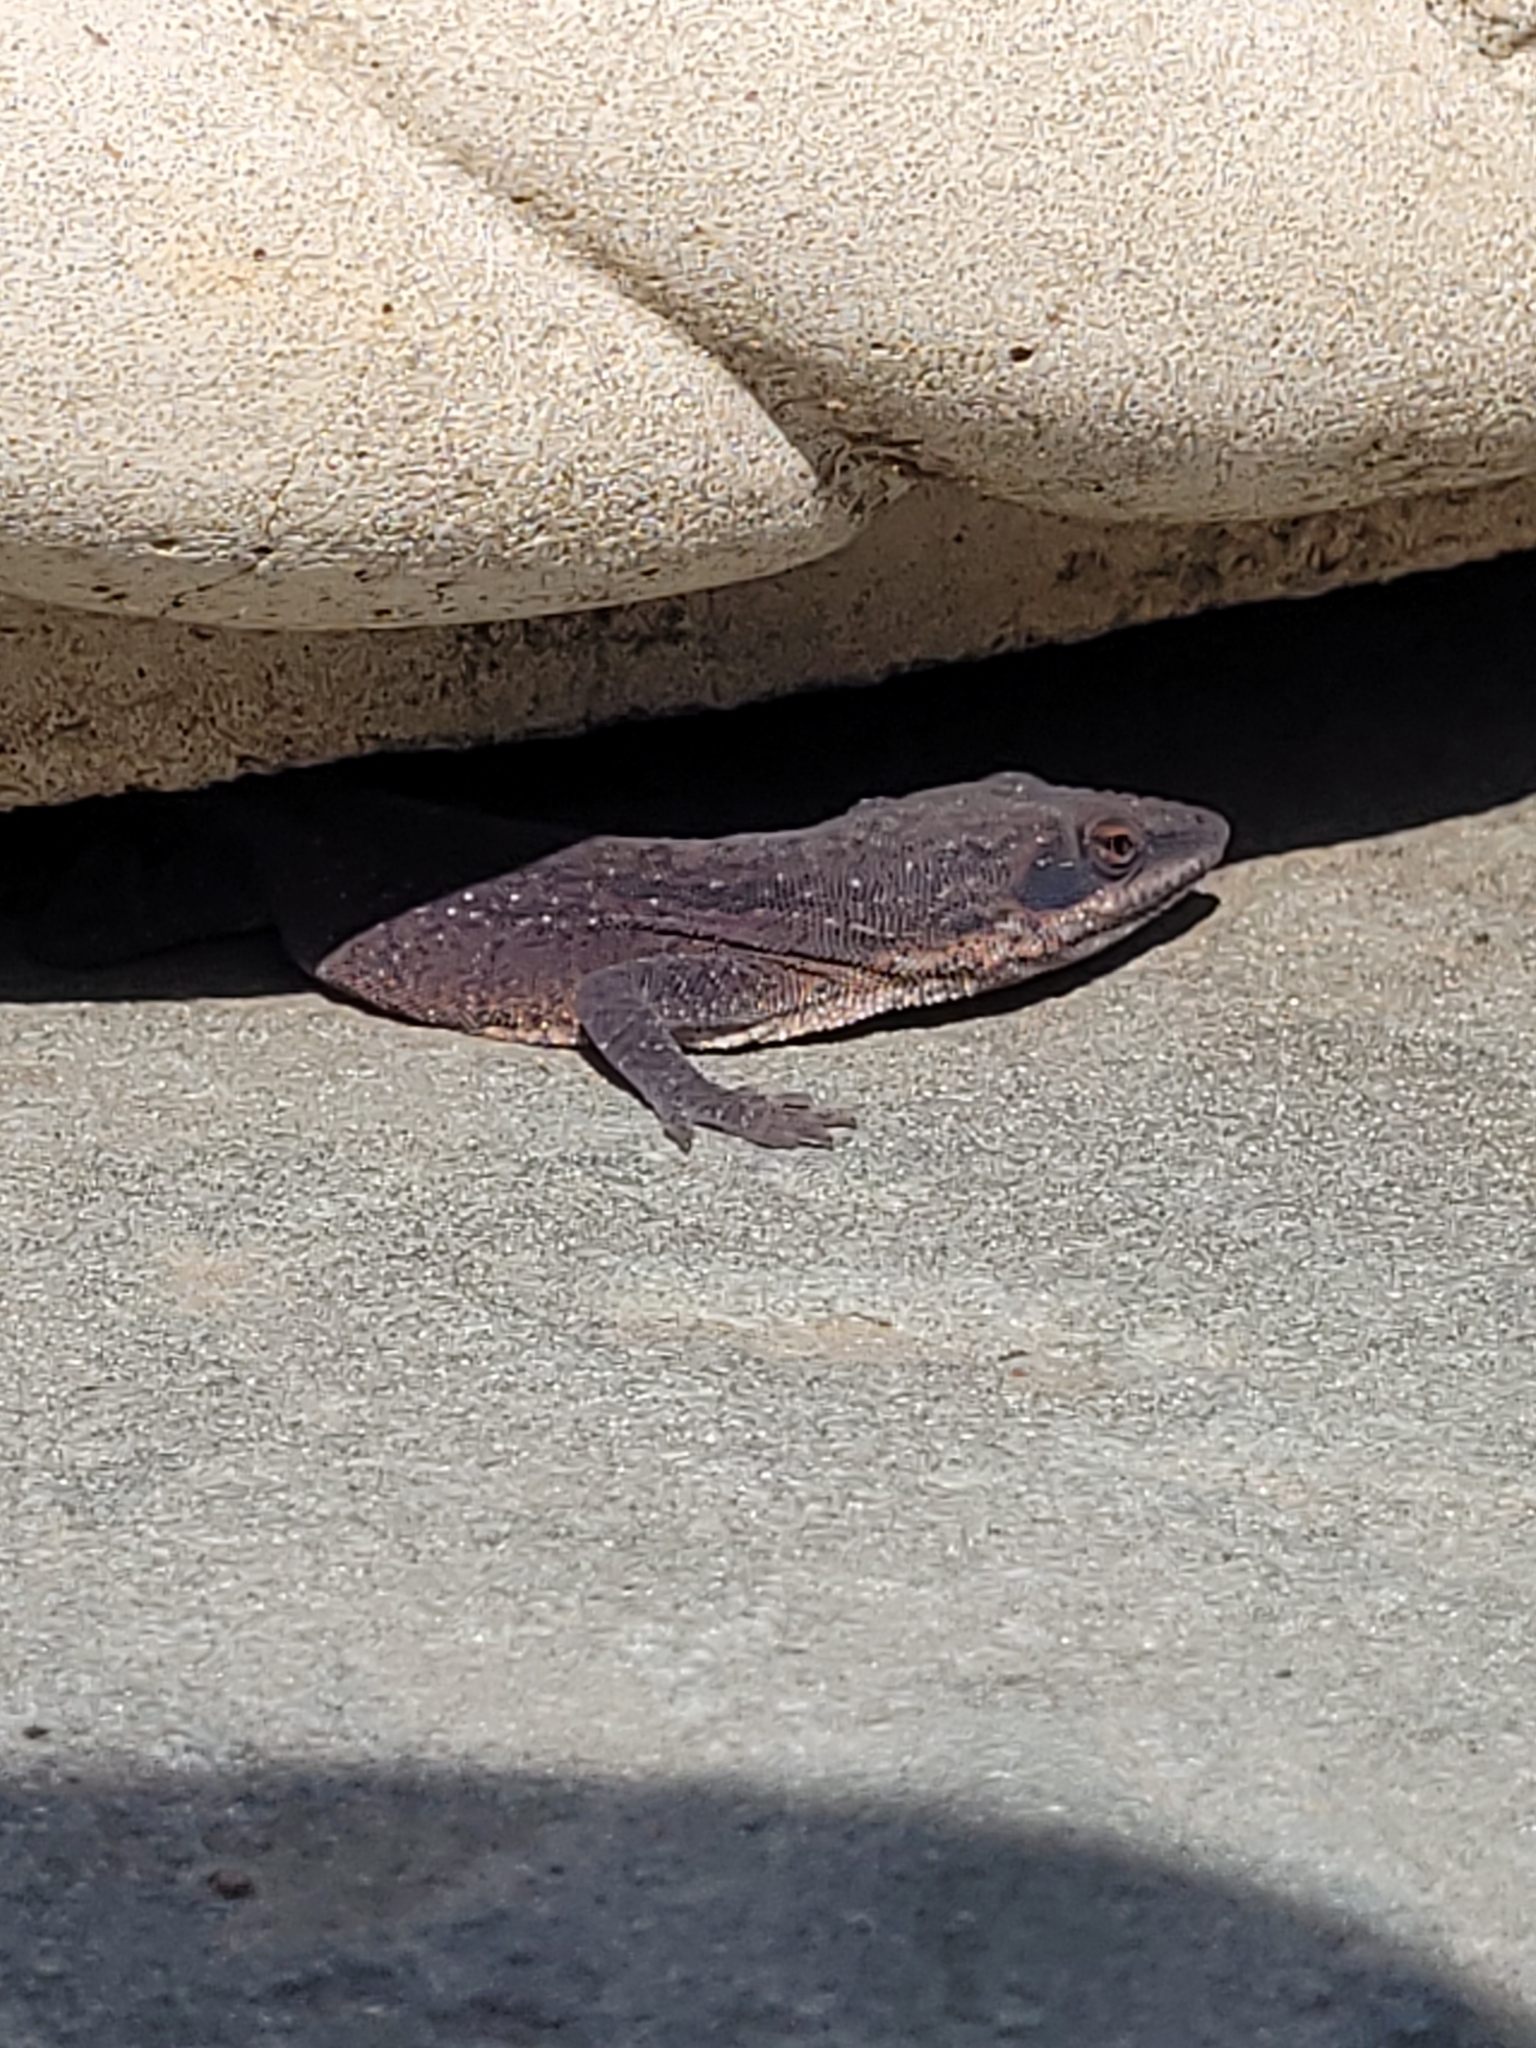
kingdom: Animalia
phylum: Chordata
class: Squamata
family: Dactyloidae
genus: Anolis
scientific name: Anolis carolinensis
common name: Green anole
